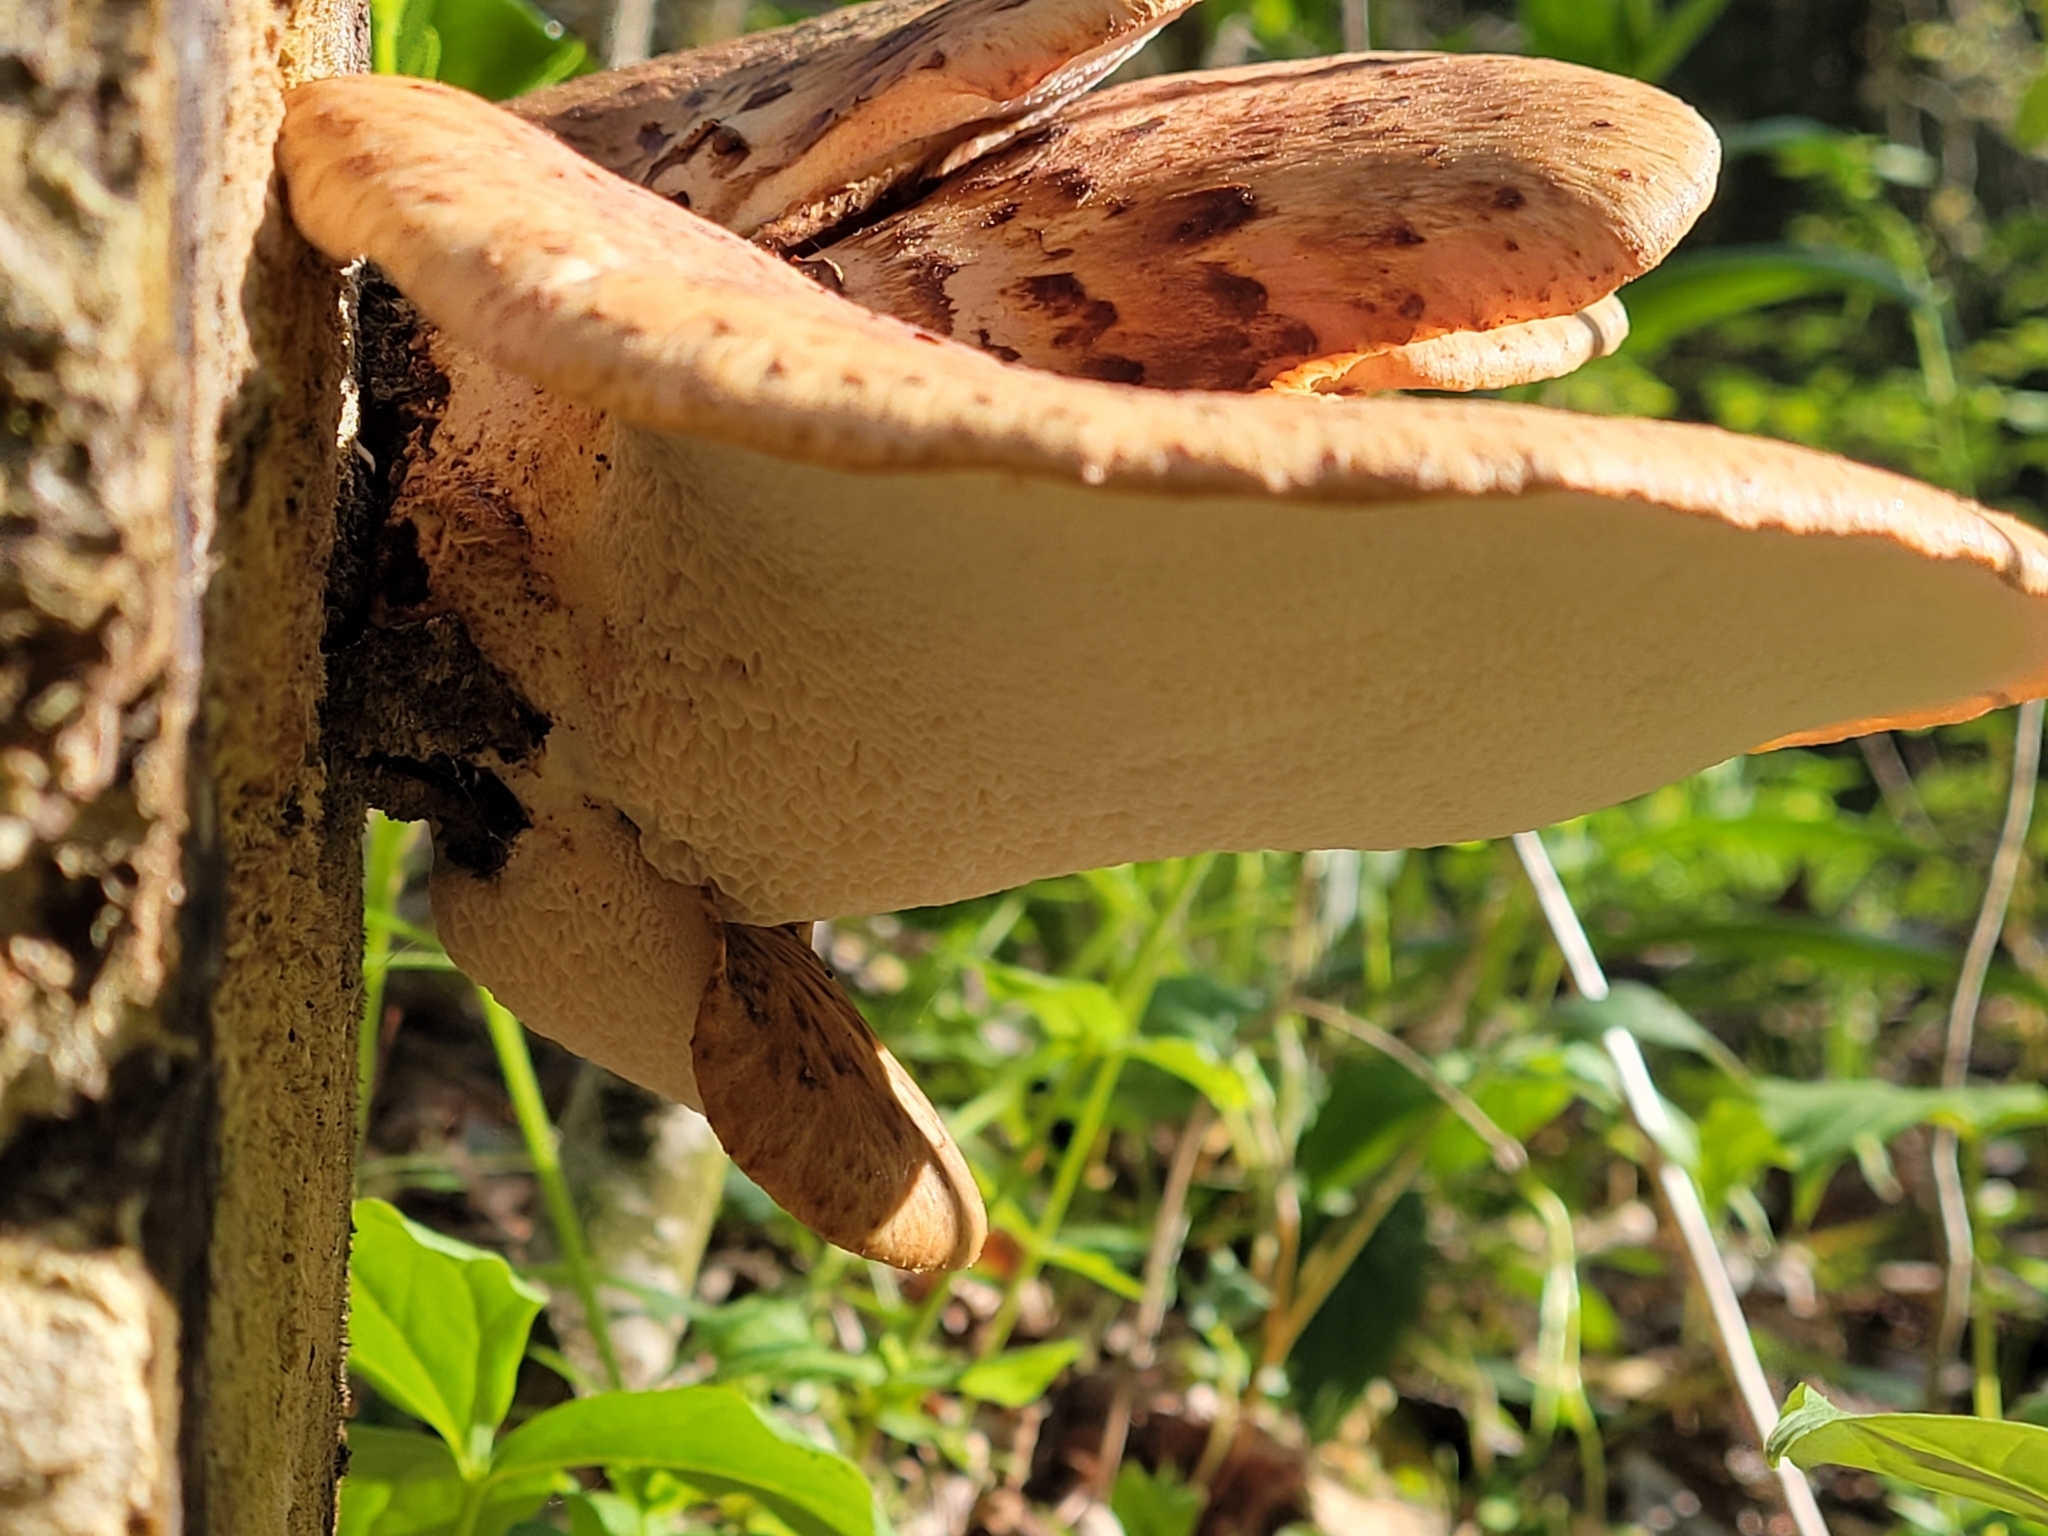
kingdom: Fungi
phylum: Basidiomycota
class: Agaricomycetes
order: Polyporales
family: Polyporaceae
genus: Cerioporus
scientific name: Cerioporus squamosus
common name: Dryad's saddle
